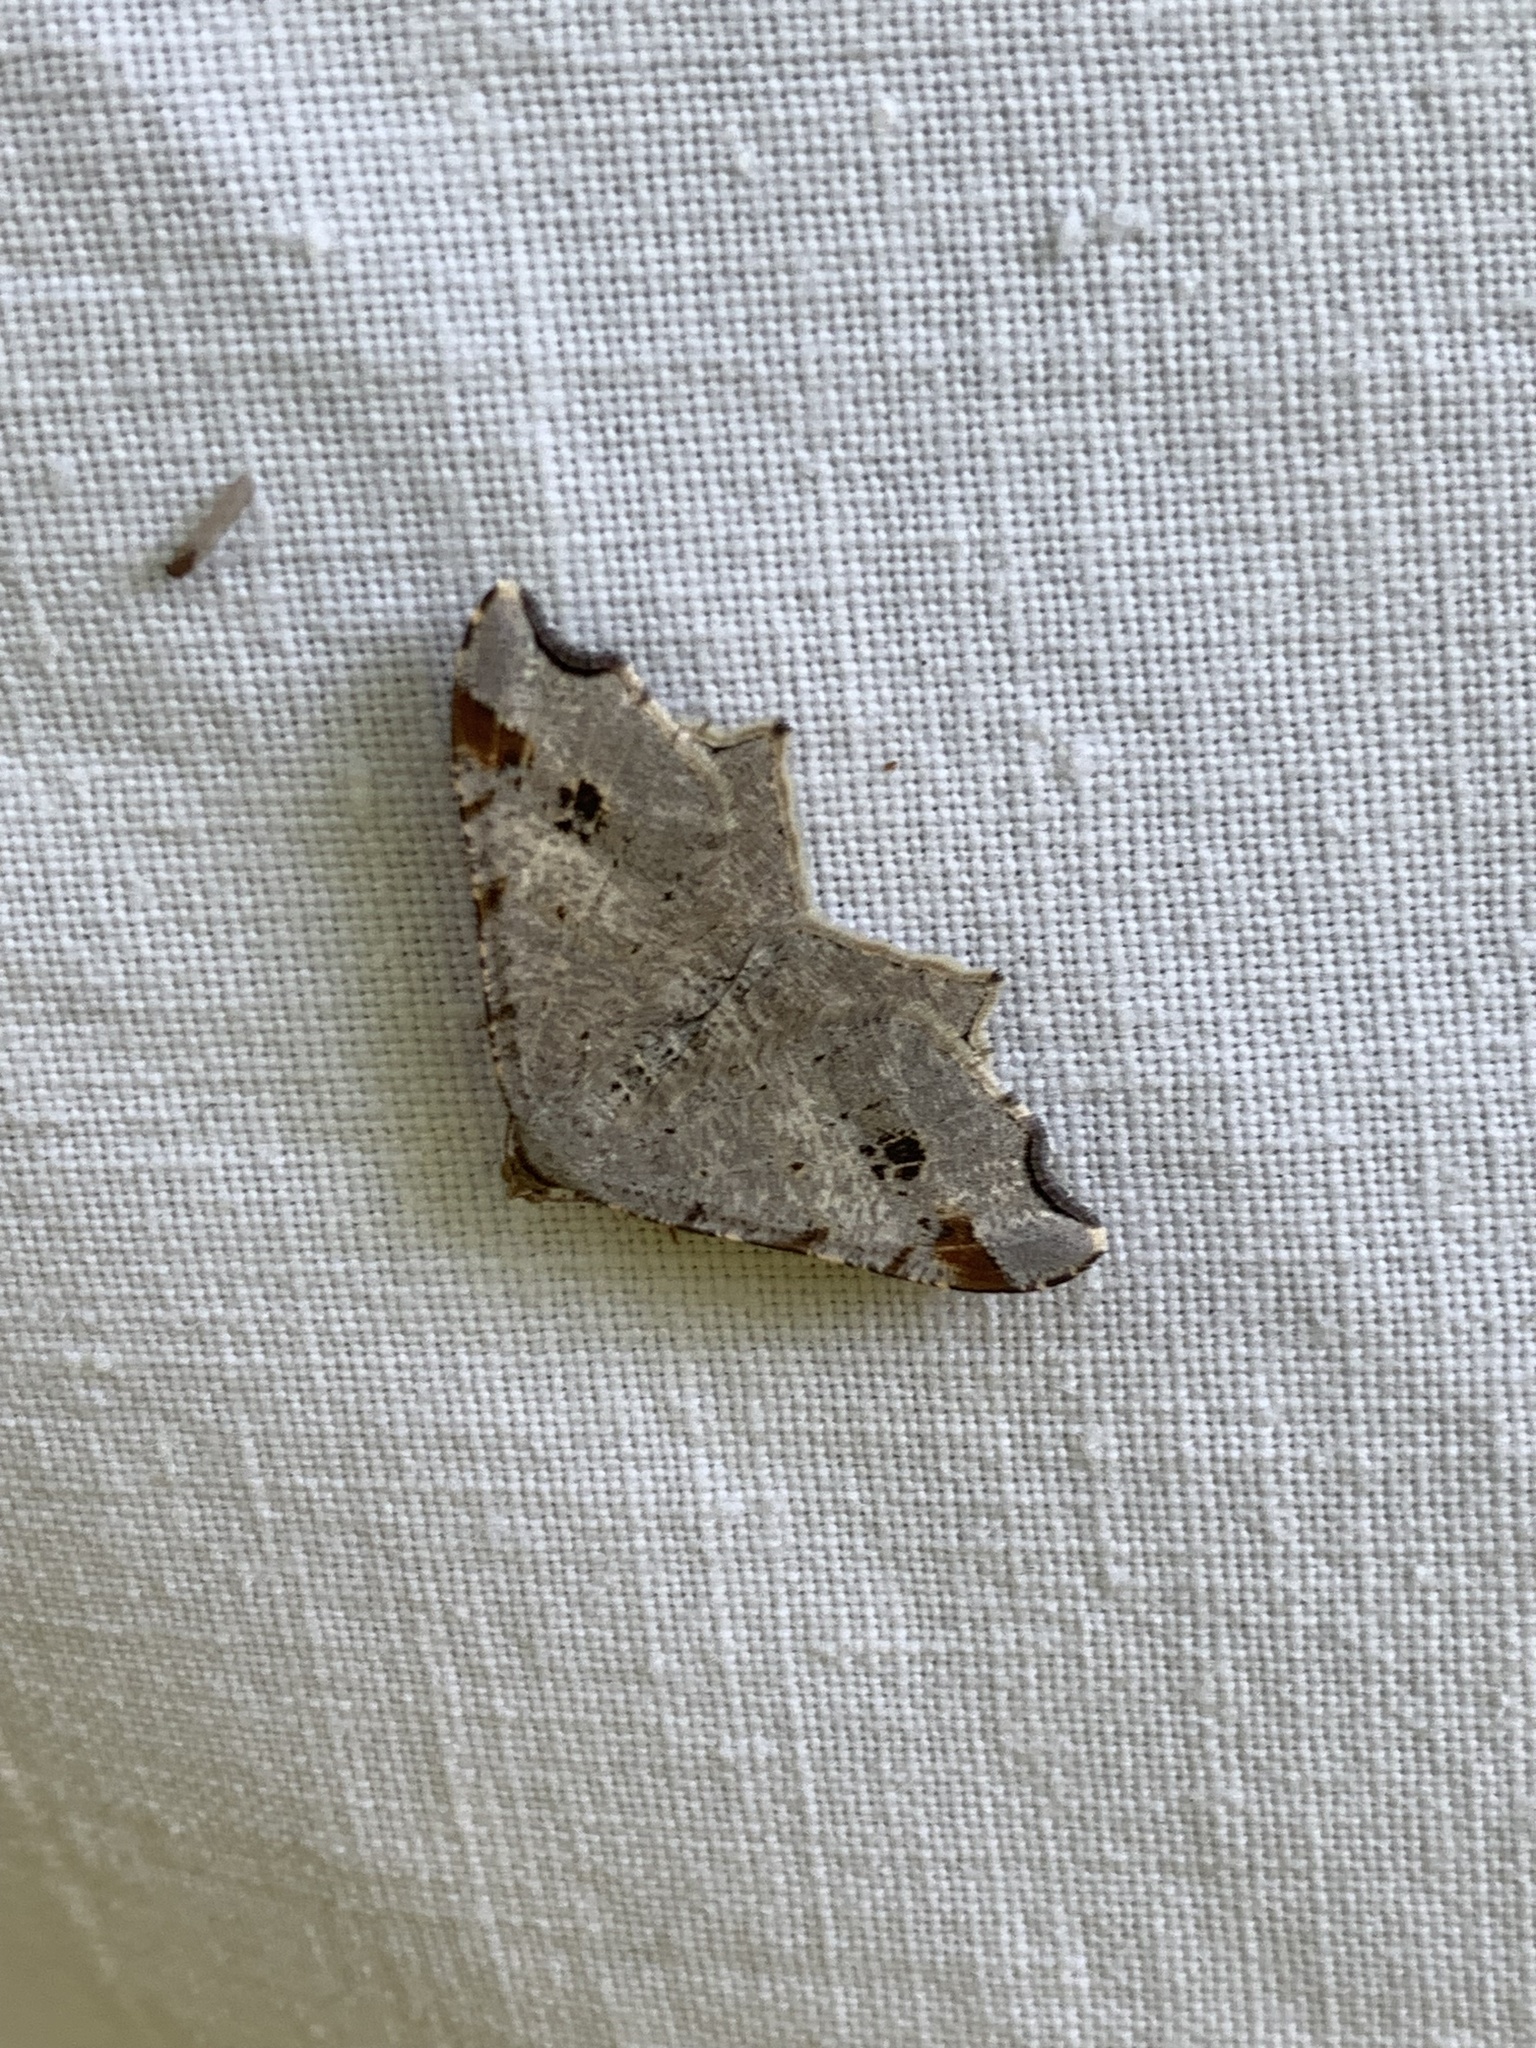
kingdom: Animalia
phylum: Arthropoda
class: Insecta
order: Lepidoptera
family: Geometridae
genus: Macaria
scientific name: Macaria alternata
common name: Sharp-angled peacock
